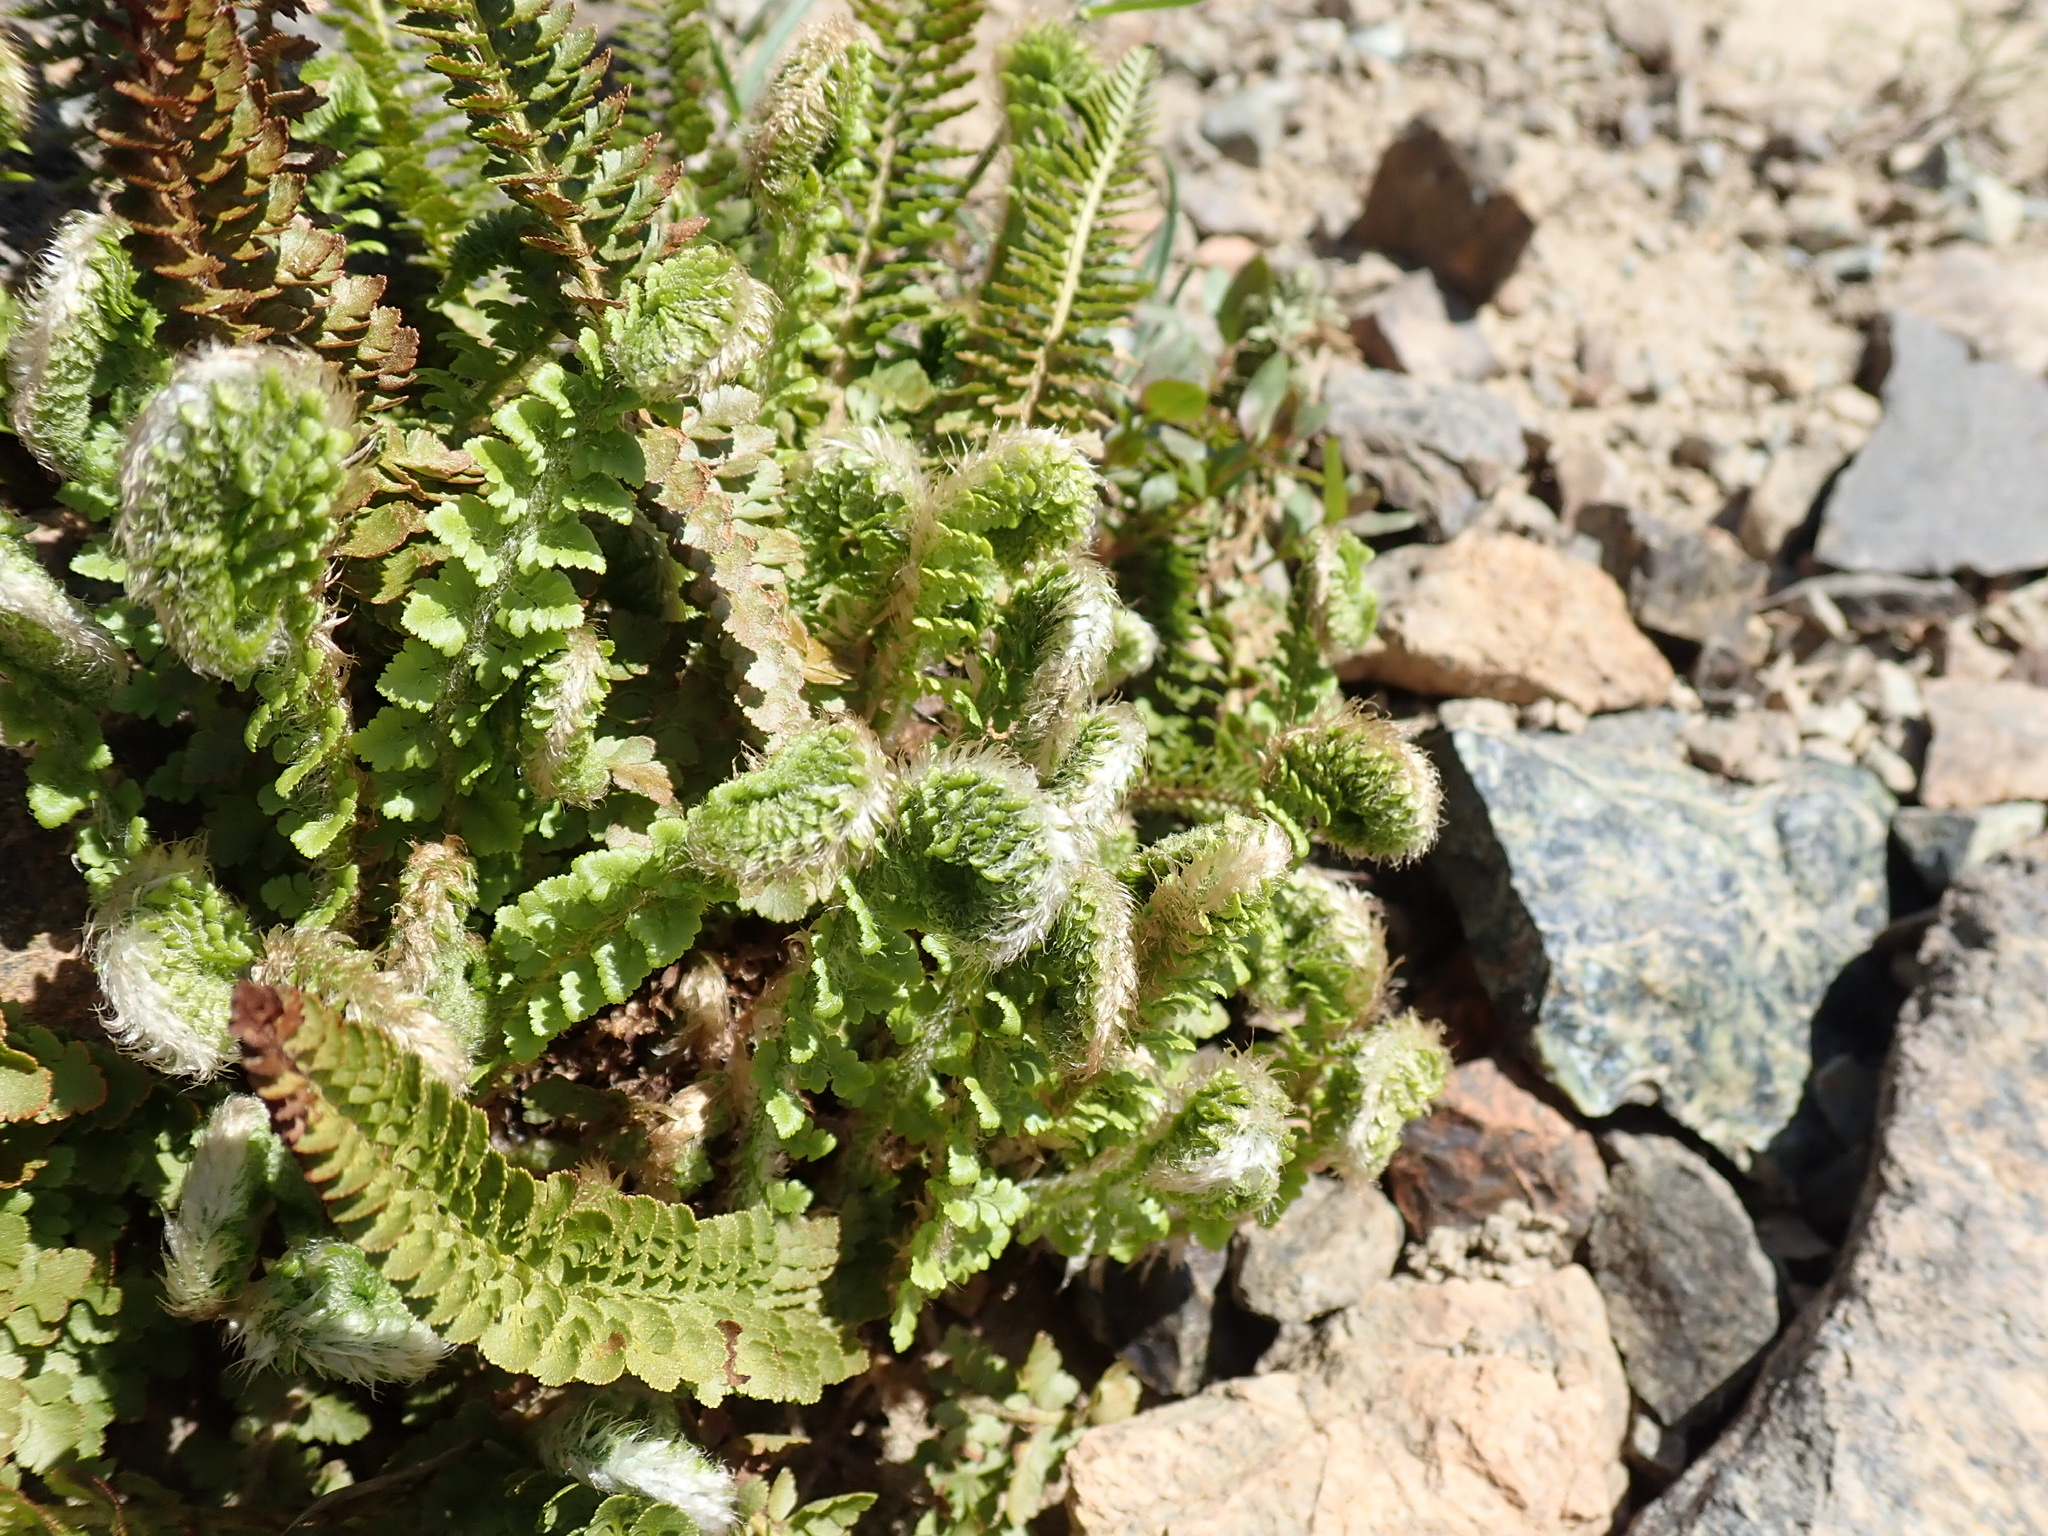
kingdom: Plantae
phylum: Tracheophyta
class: Polypodiopsida
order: Polypodiales
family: Dryopteridaceae
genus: Polystichum
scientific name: Polystichum lemmonii
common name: Lemmon's holly fern
